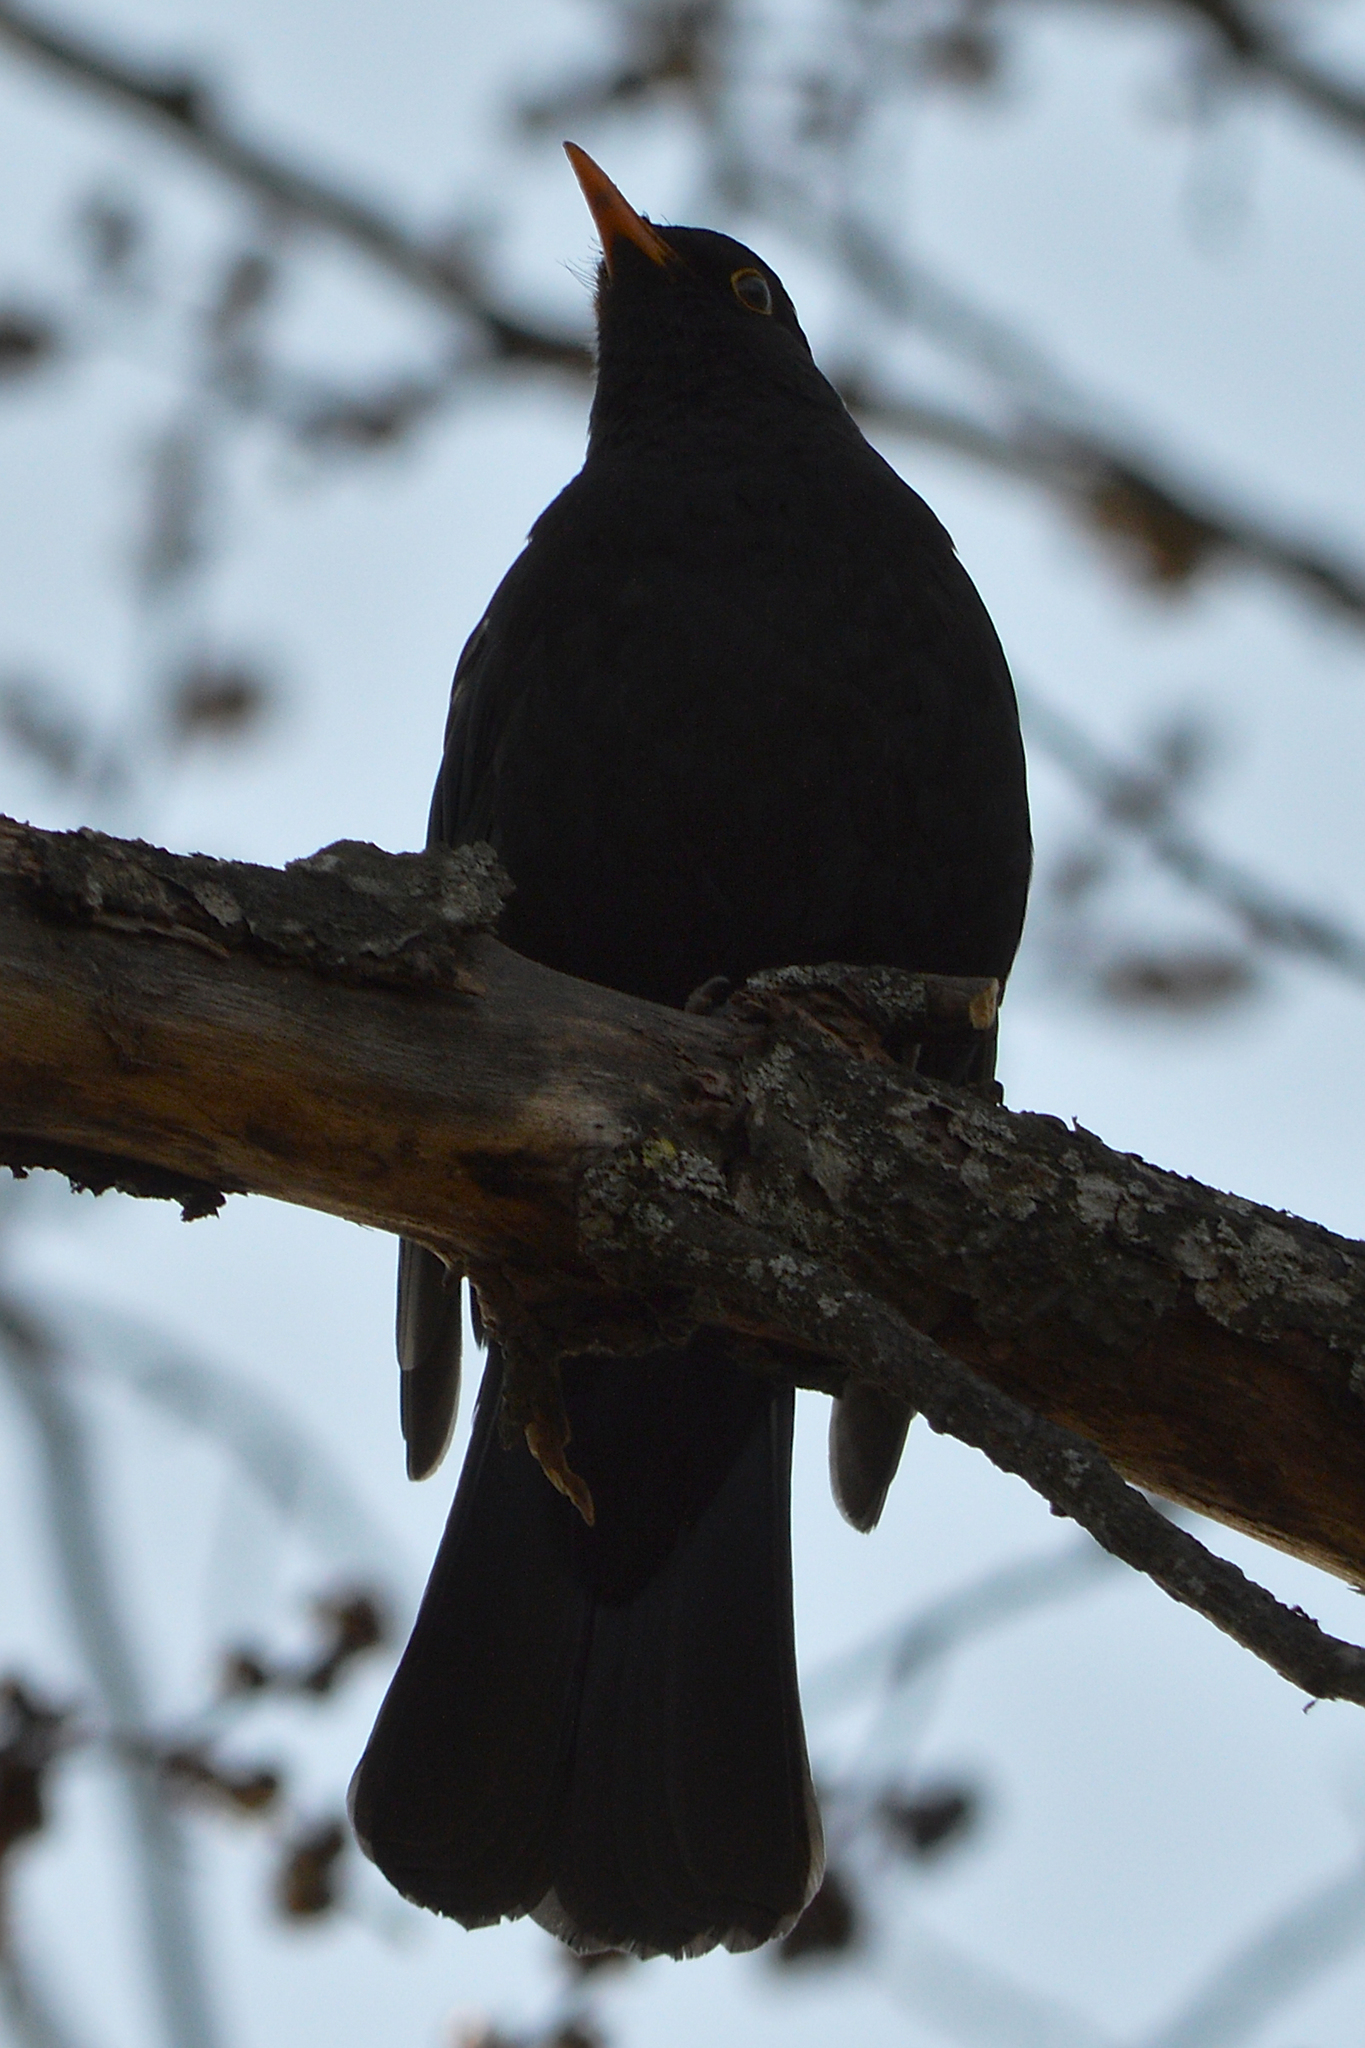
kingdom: Animalia
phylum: Chordata
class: Aves
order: Passeriformes
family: Turdidae
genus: Turdus
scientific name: Turdus merula
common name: Common blackbird
